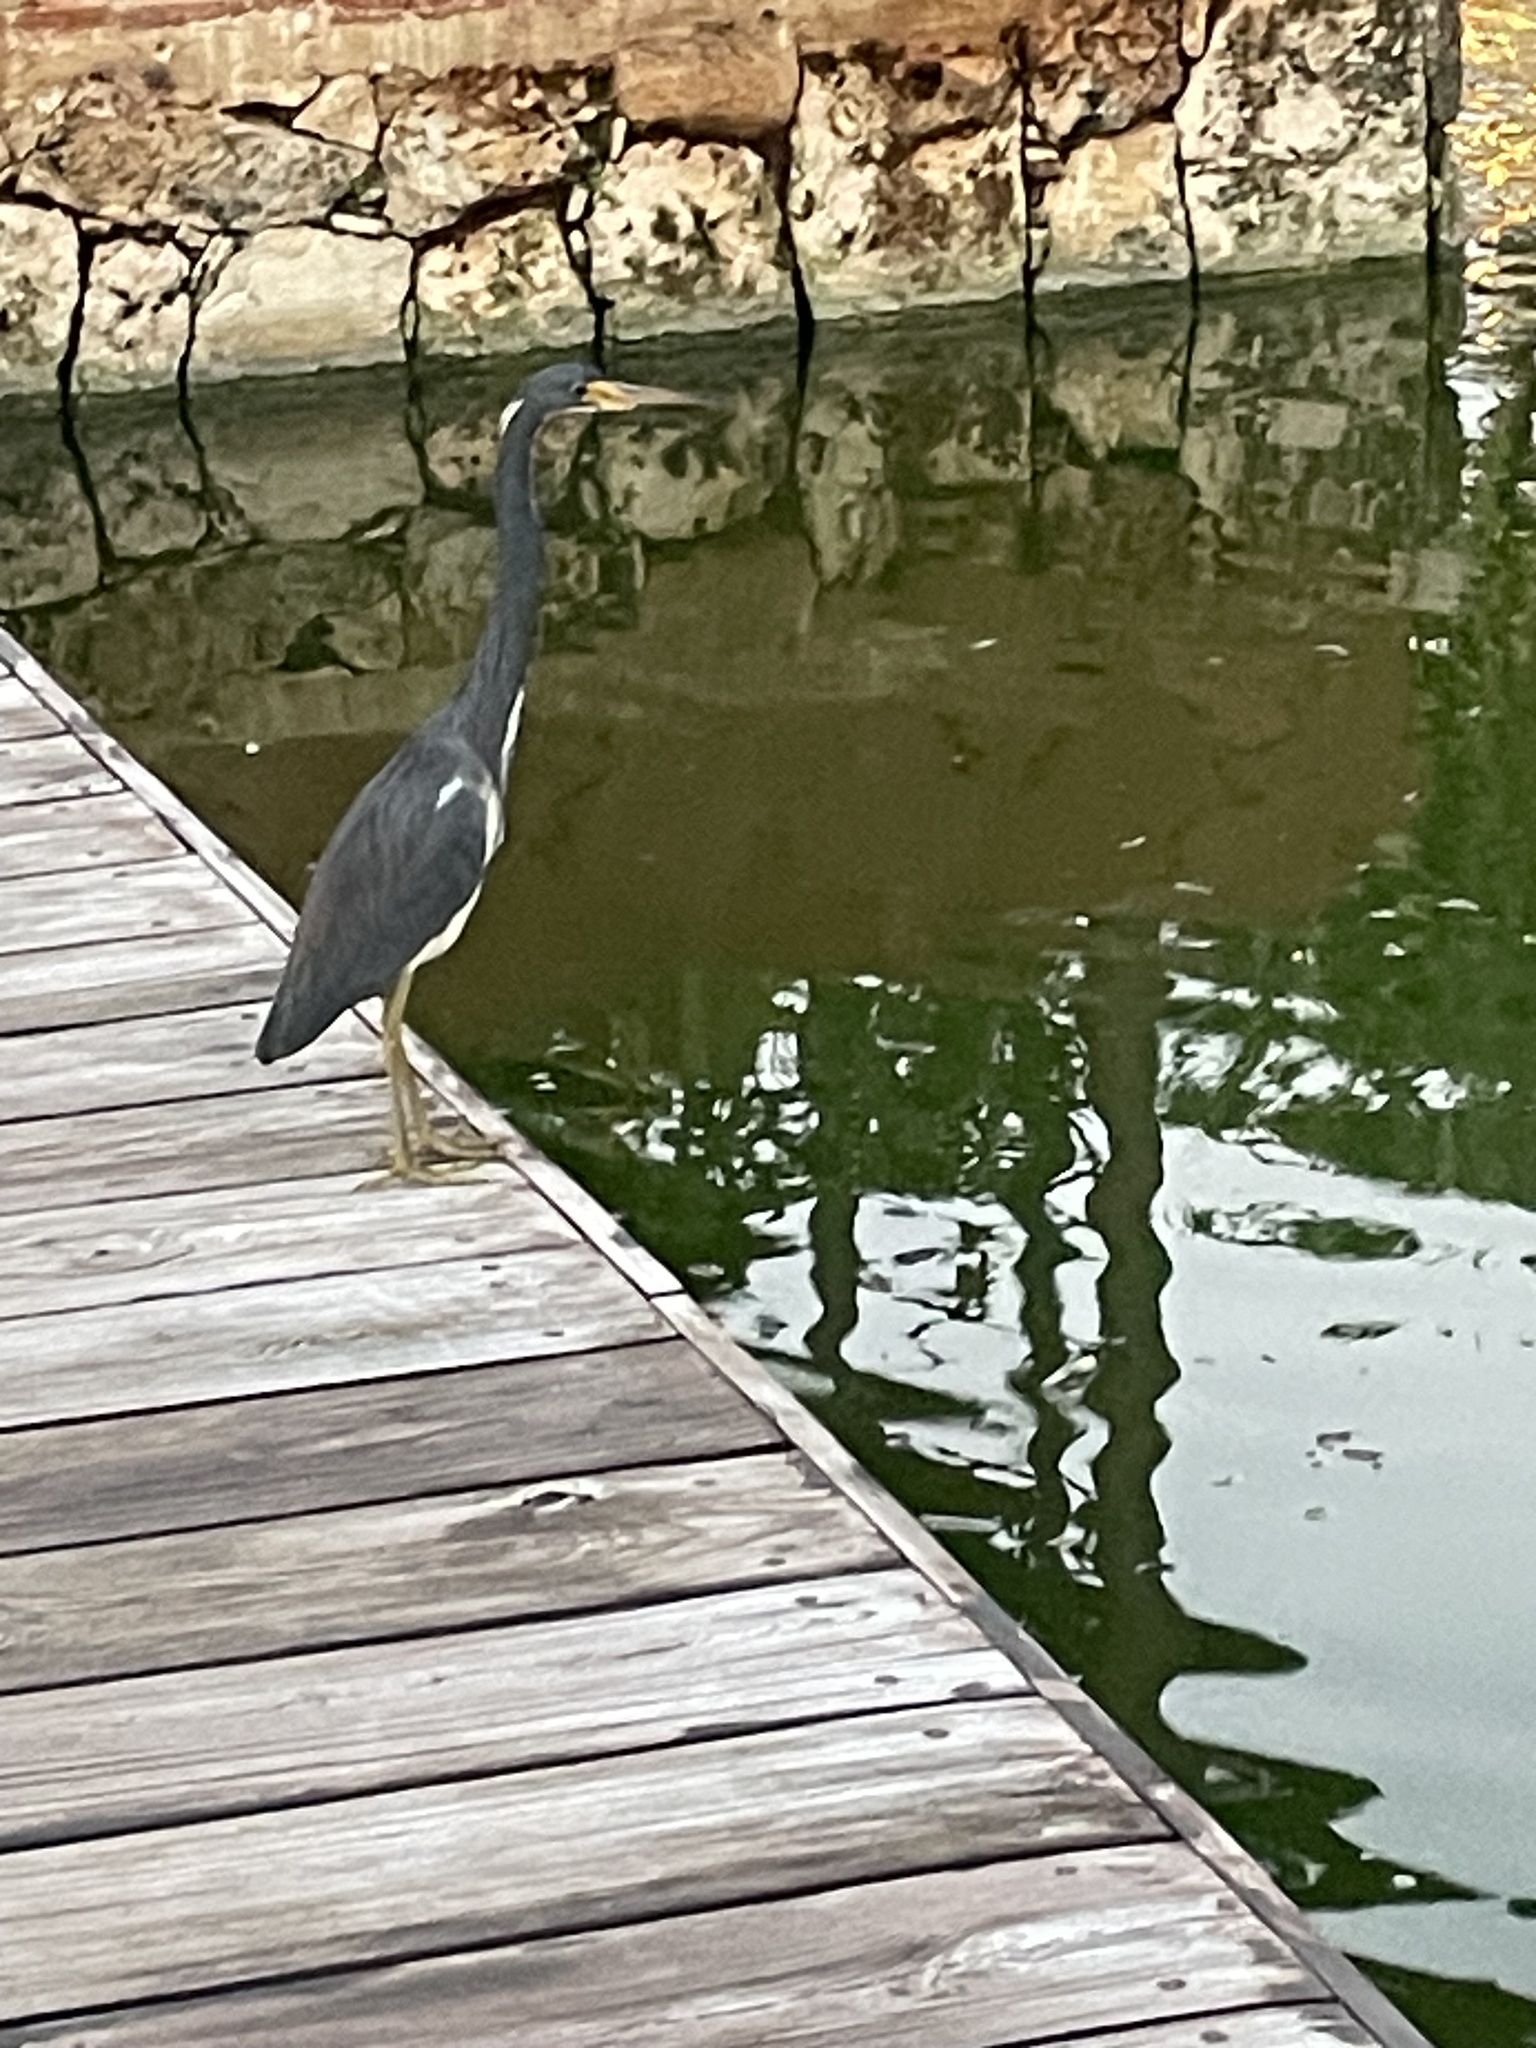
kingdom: Animalia
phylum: Chordata
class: Aves
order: Pelecaniformes
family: Ardeidae
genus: Egretta
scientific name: Egretta tricolor
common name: Tricolored heron
